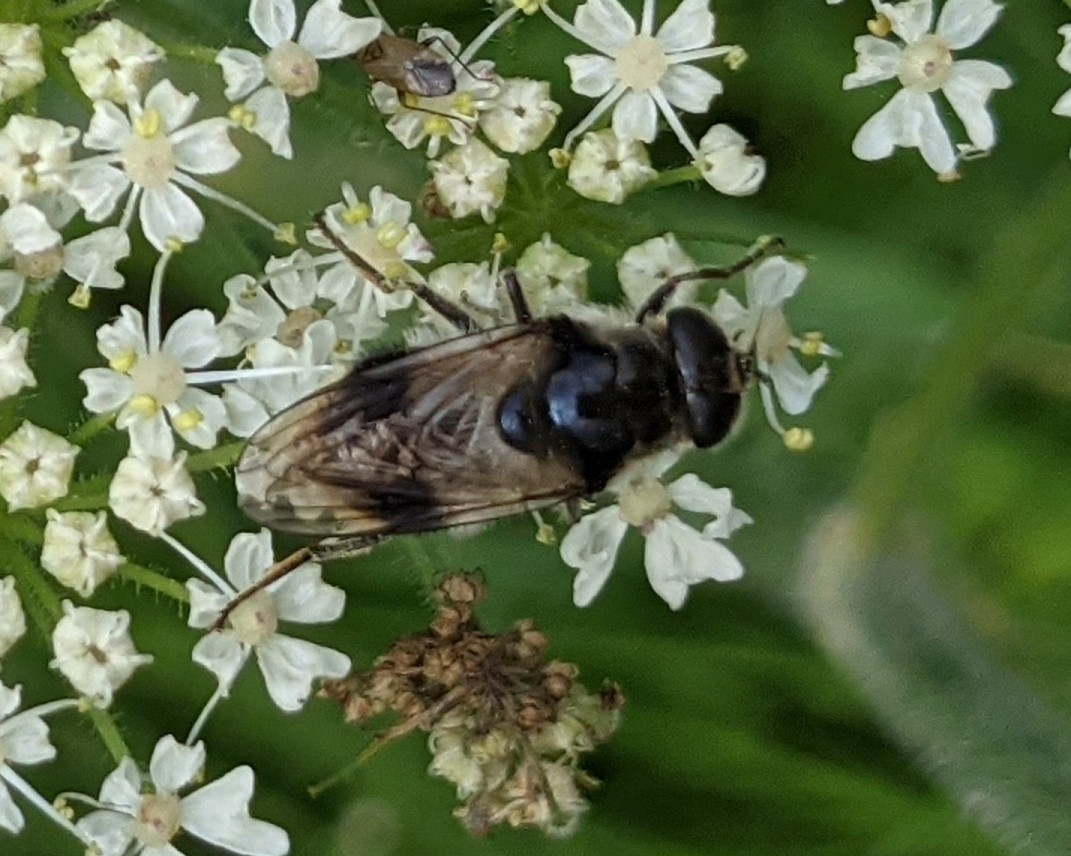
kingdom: Animalia
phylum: Arthropoda
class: Insecta
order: Diptera
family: Syrphidae
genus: Cheilosia
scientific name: Cheilosia illustrata
